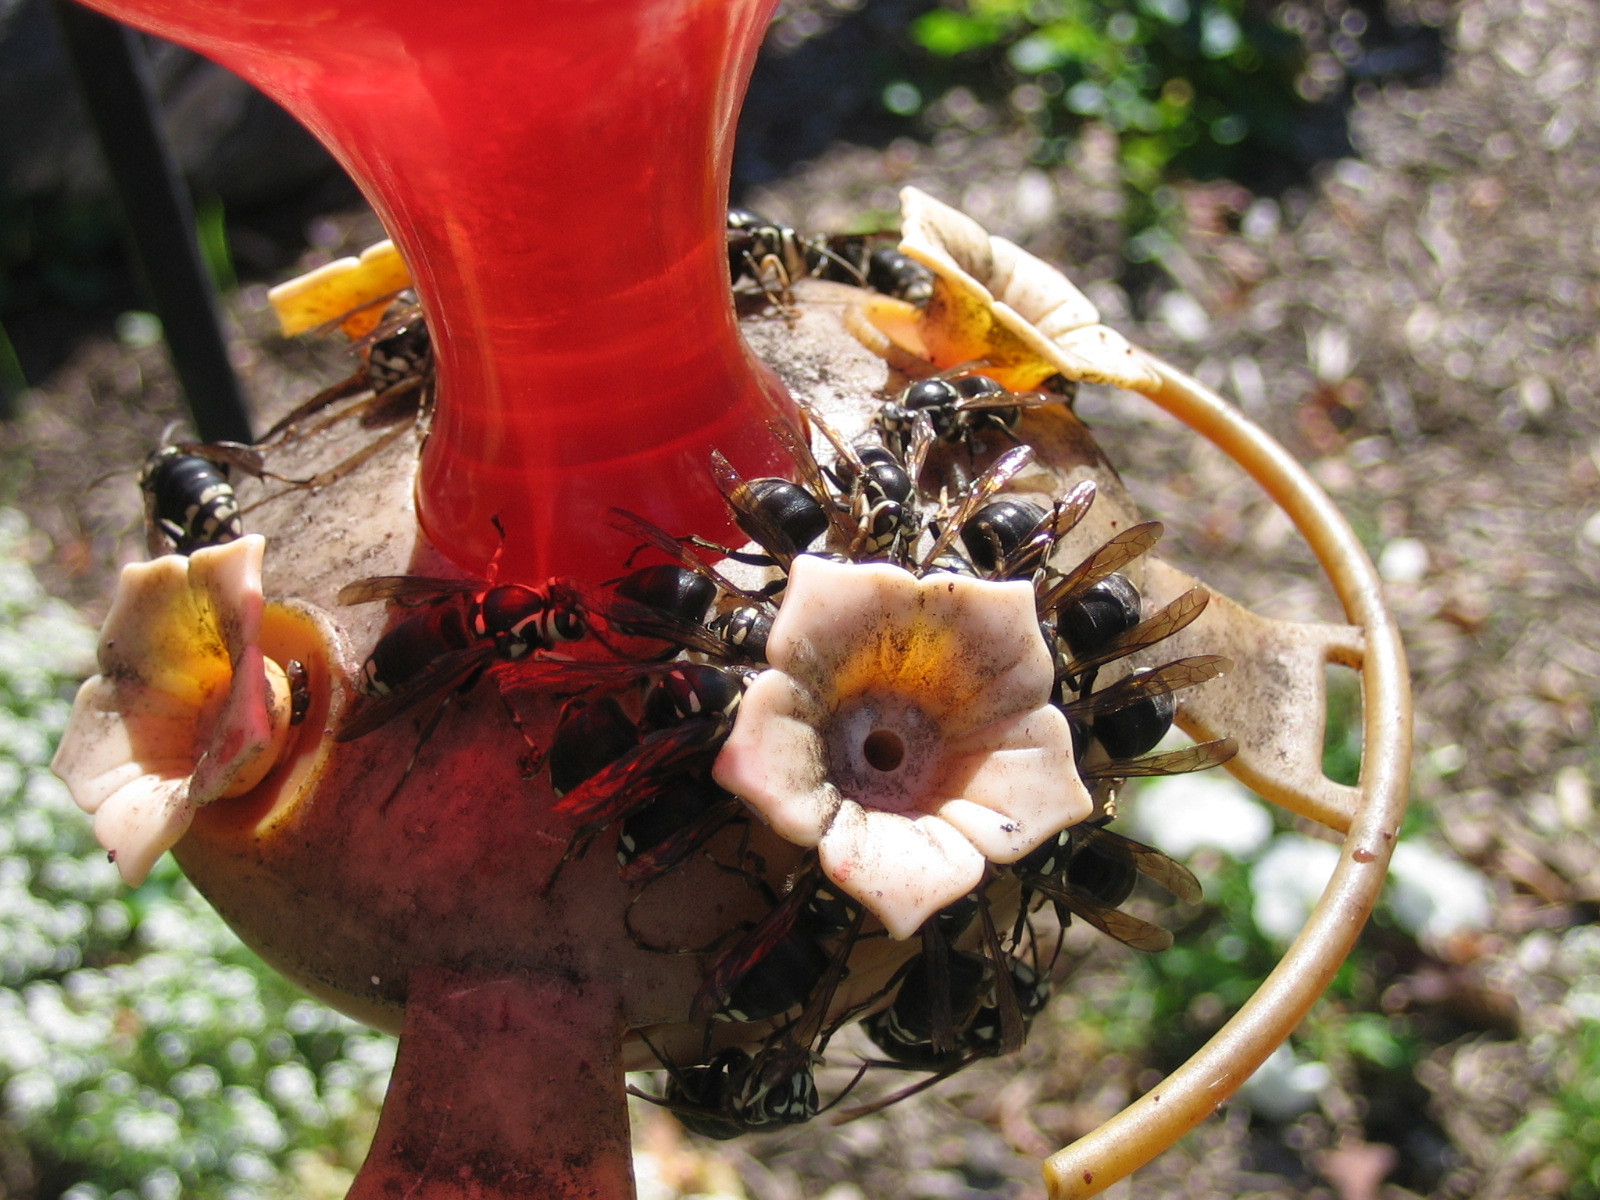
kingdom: Animalia
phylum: Arthropoda
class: Insecta
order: Hymenoptera
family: Vespidae
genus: Dolichovespula
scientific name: Dolichovespula maculata
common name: Bald-faced hornet
